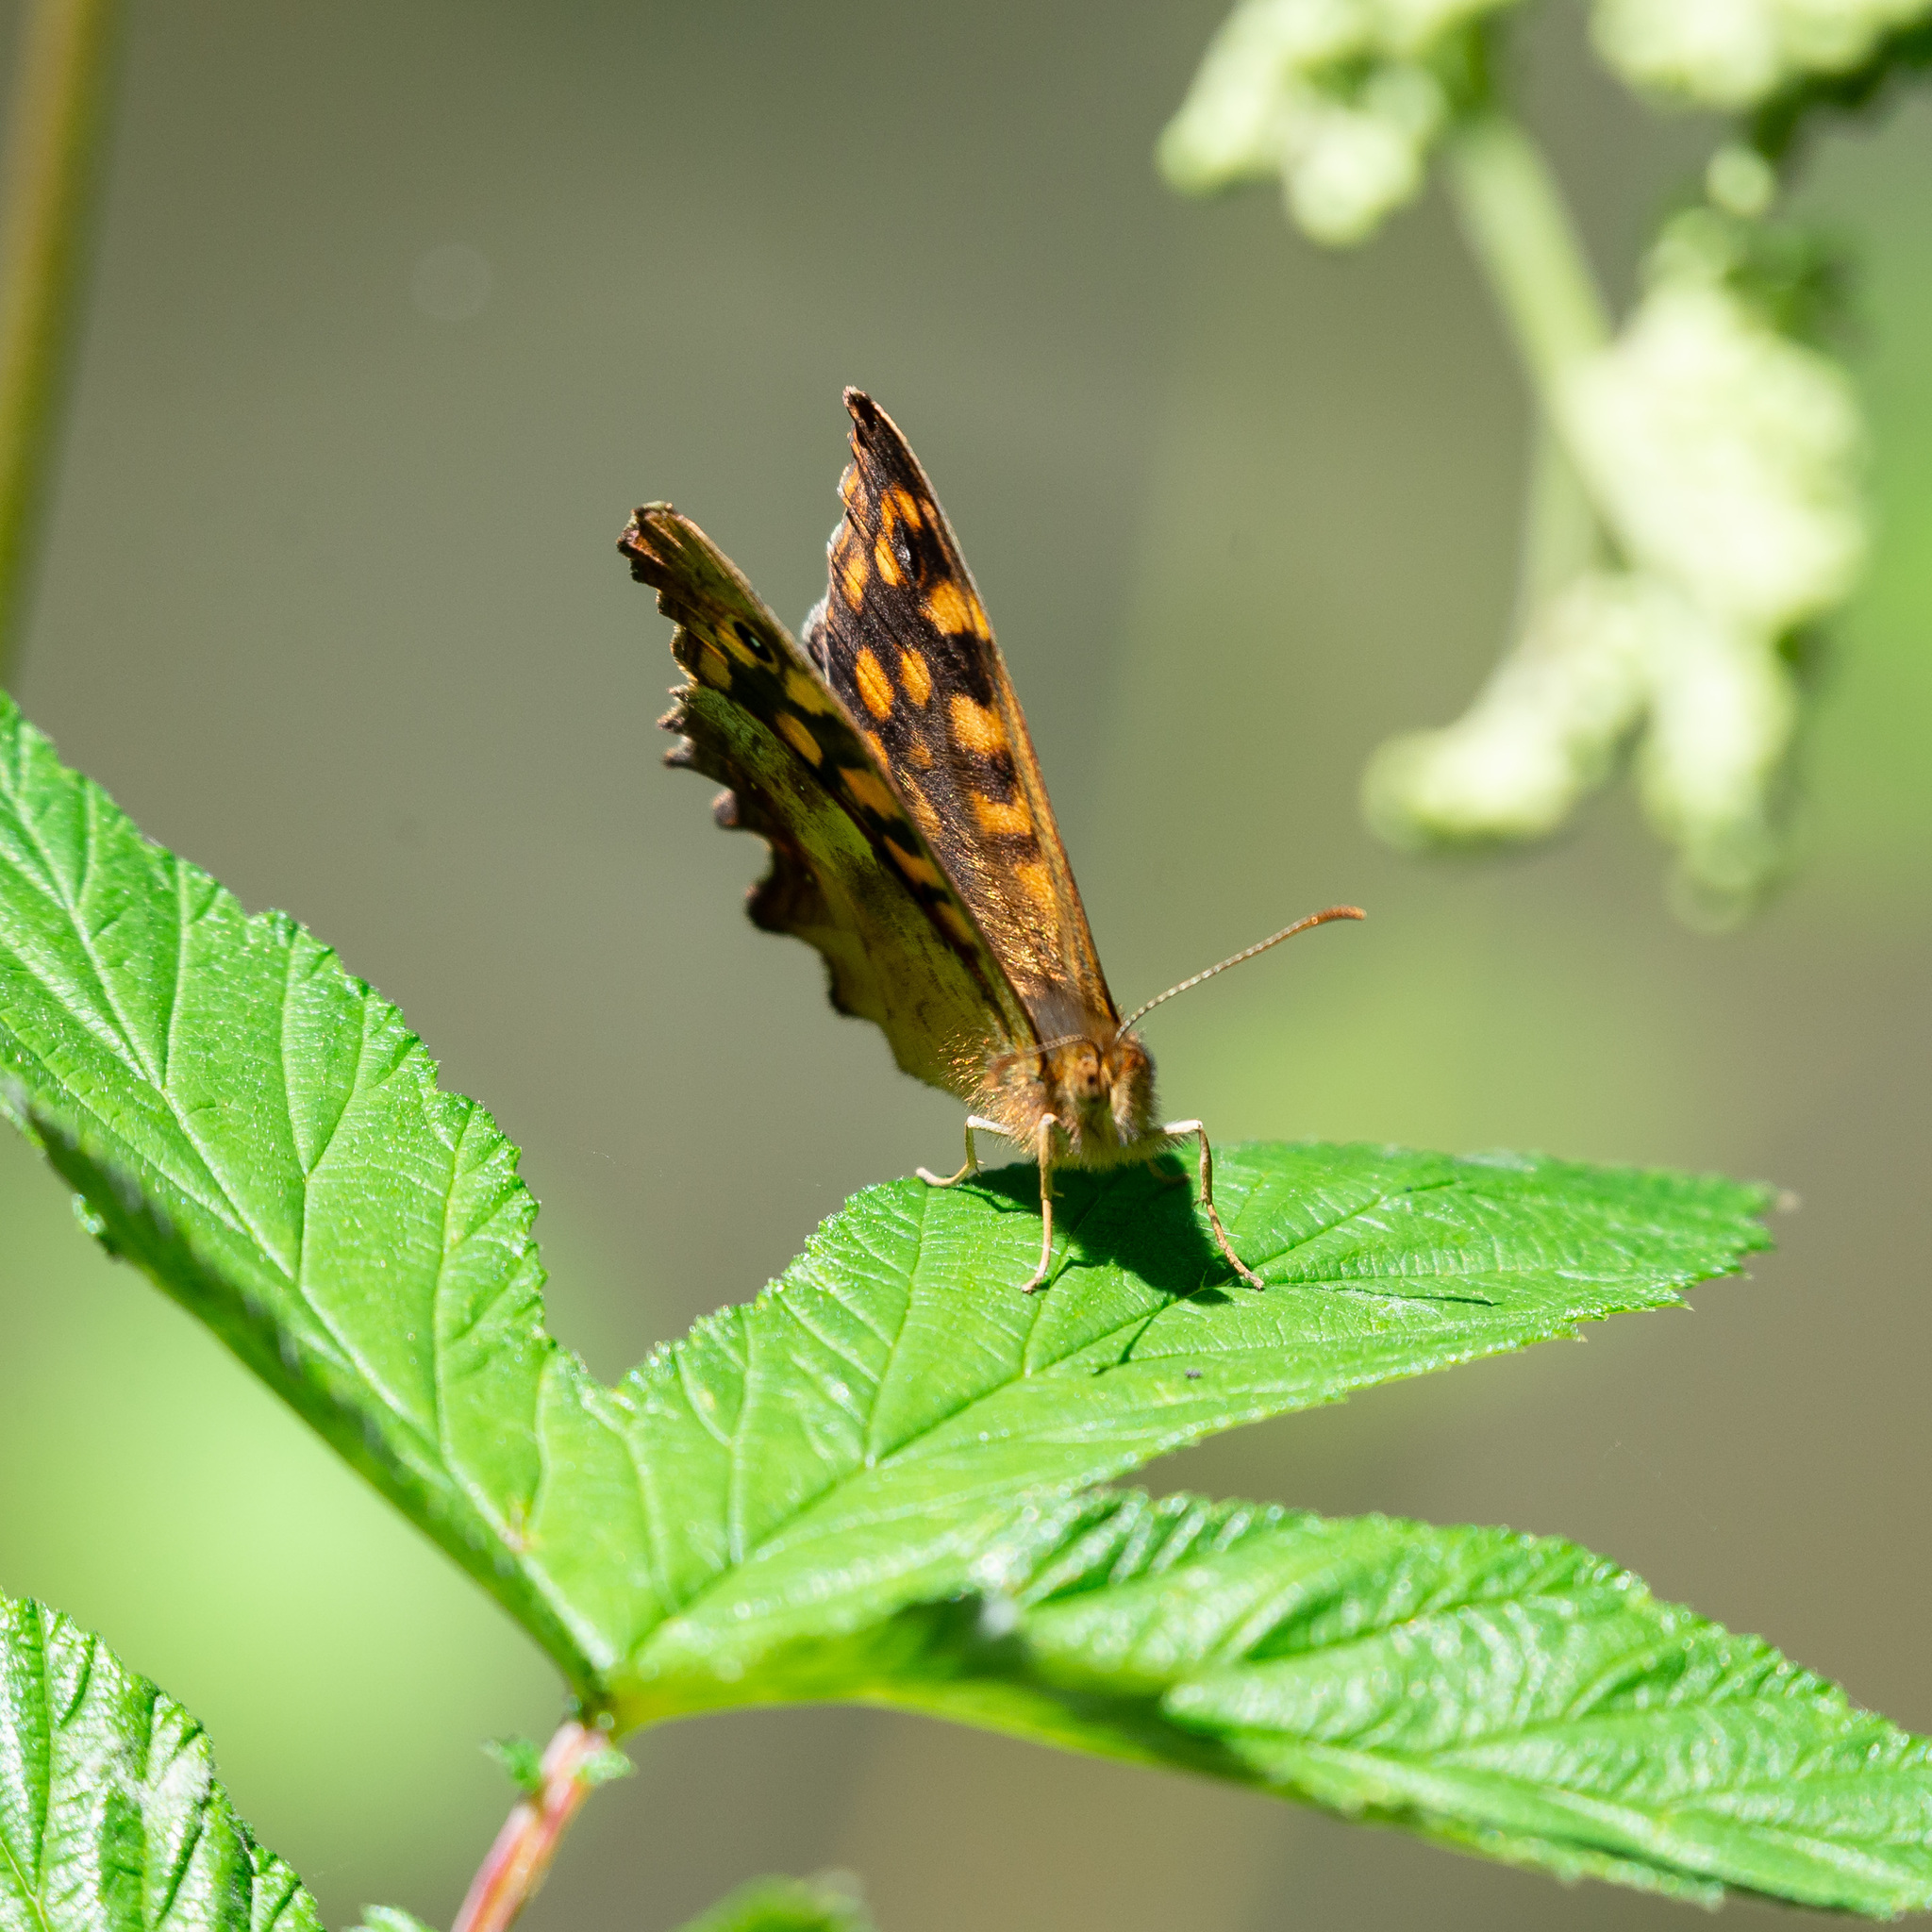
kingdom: Animalia
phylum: Arthropoda
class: Insecta
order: Lepidoptera
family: Nymphalidae
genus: Pararge
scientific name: Pararge aegeria
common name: Speckled wood
